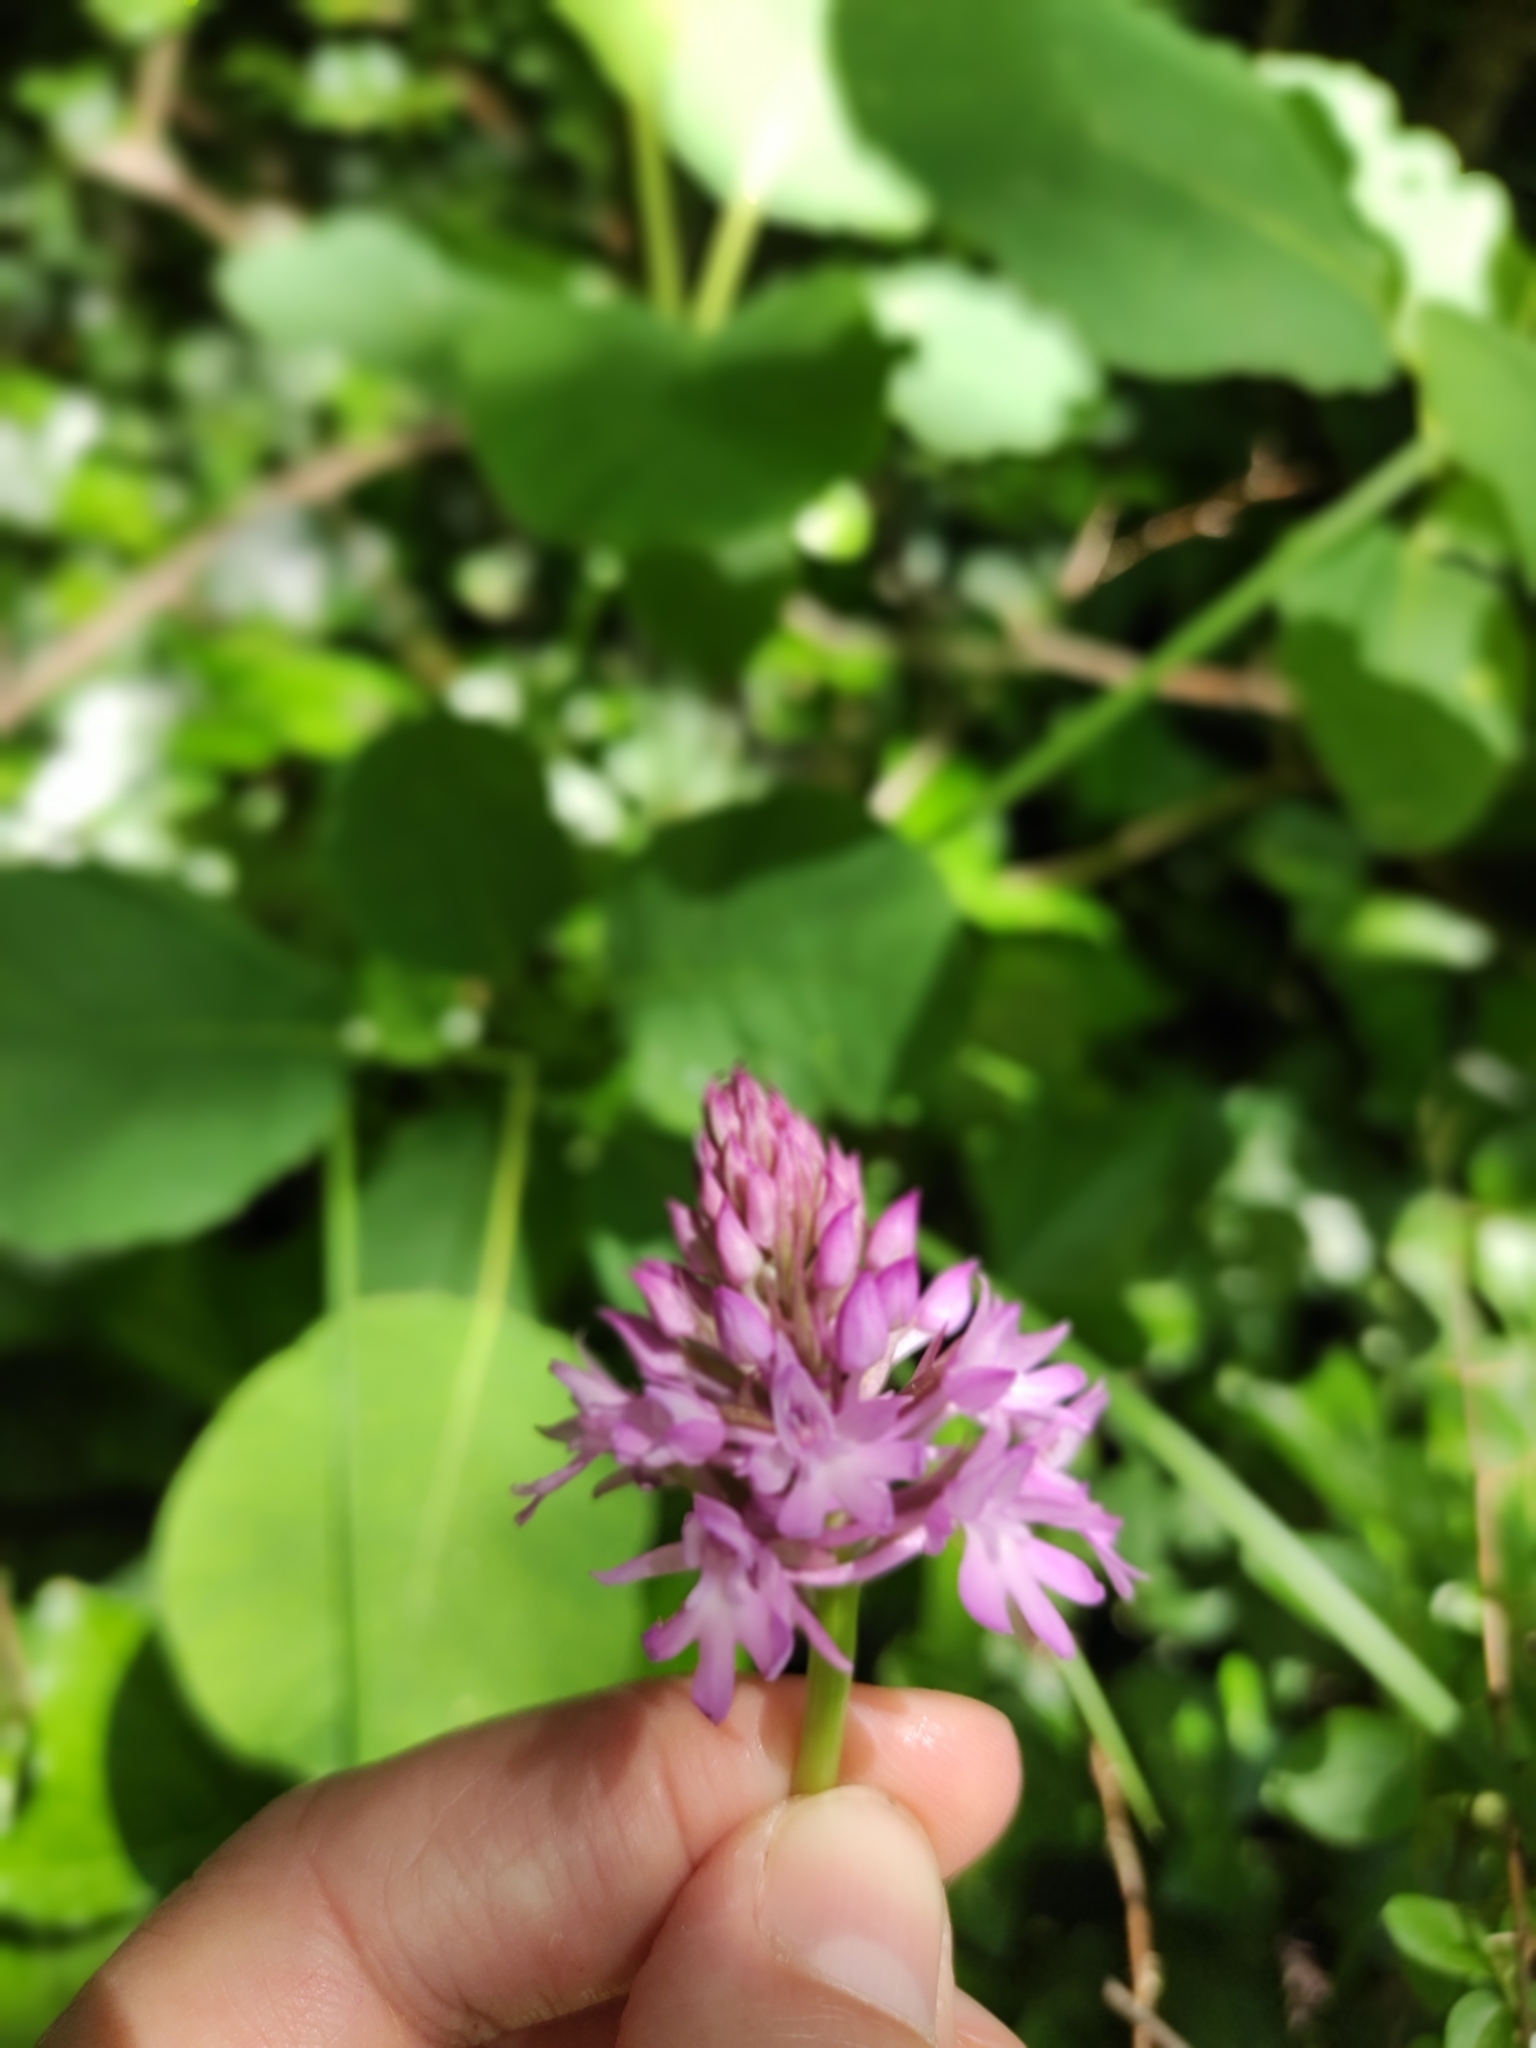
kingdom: Plantae
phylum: Tracheophyta
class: Liliopsida
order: Asparagales
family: Orchidaceae
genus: Anacamptis
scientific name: Anacamptis pyramidalis
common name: Pyramidal orchid
